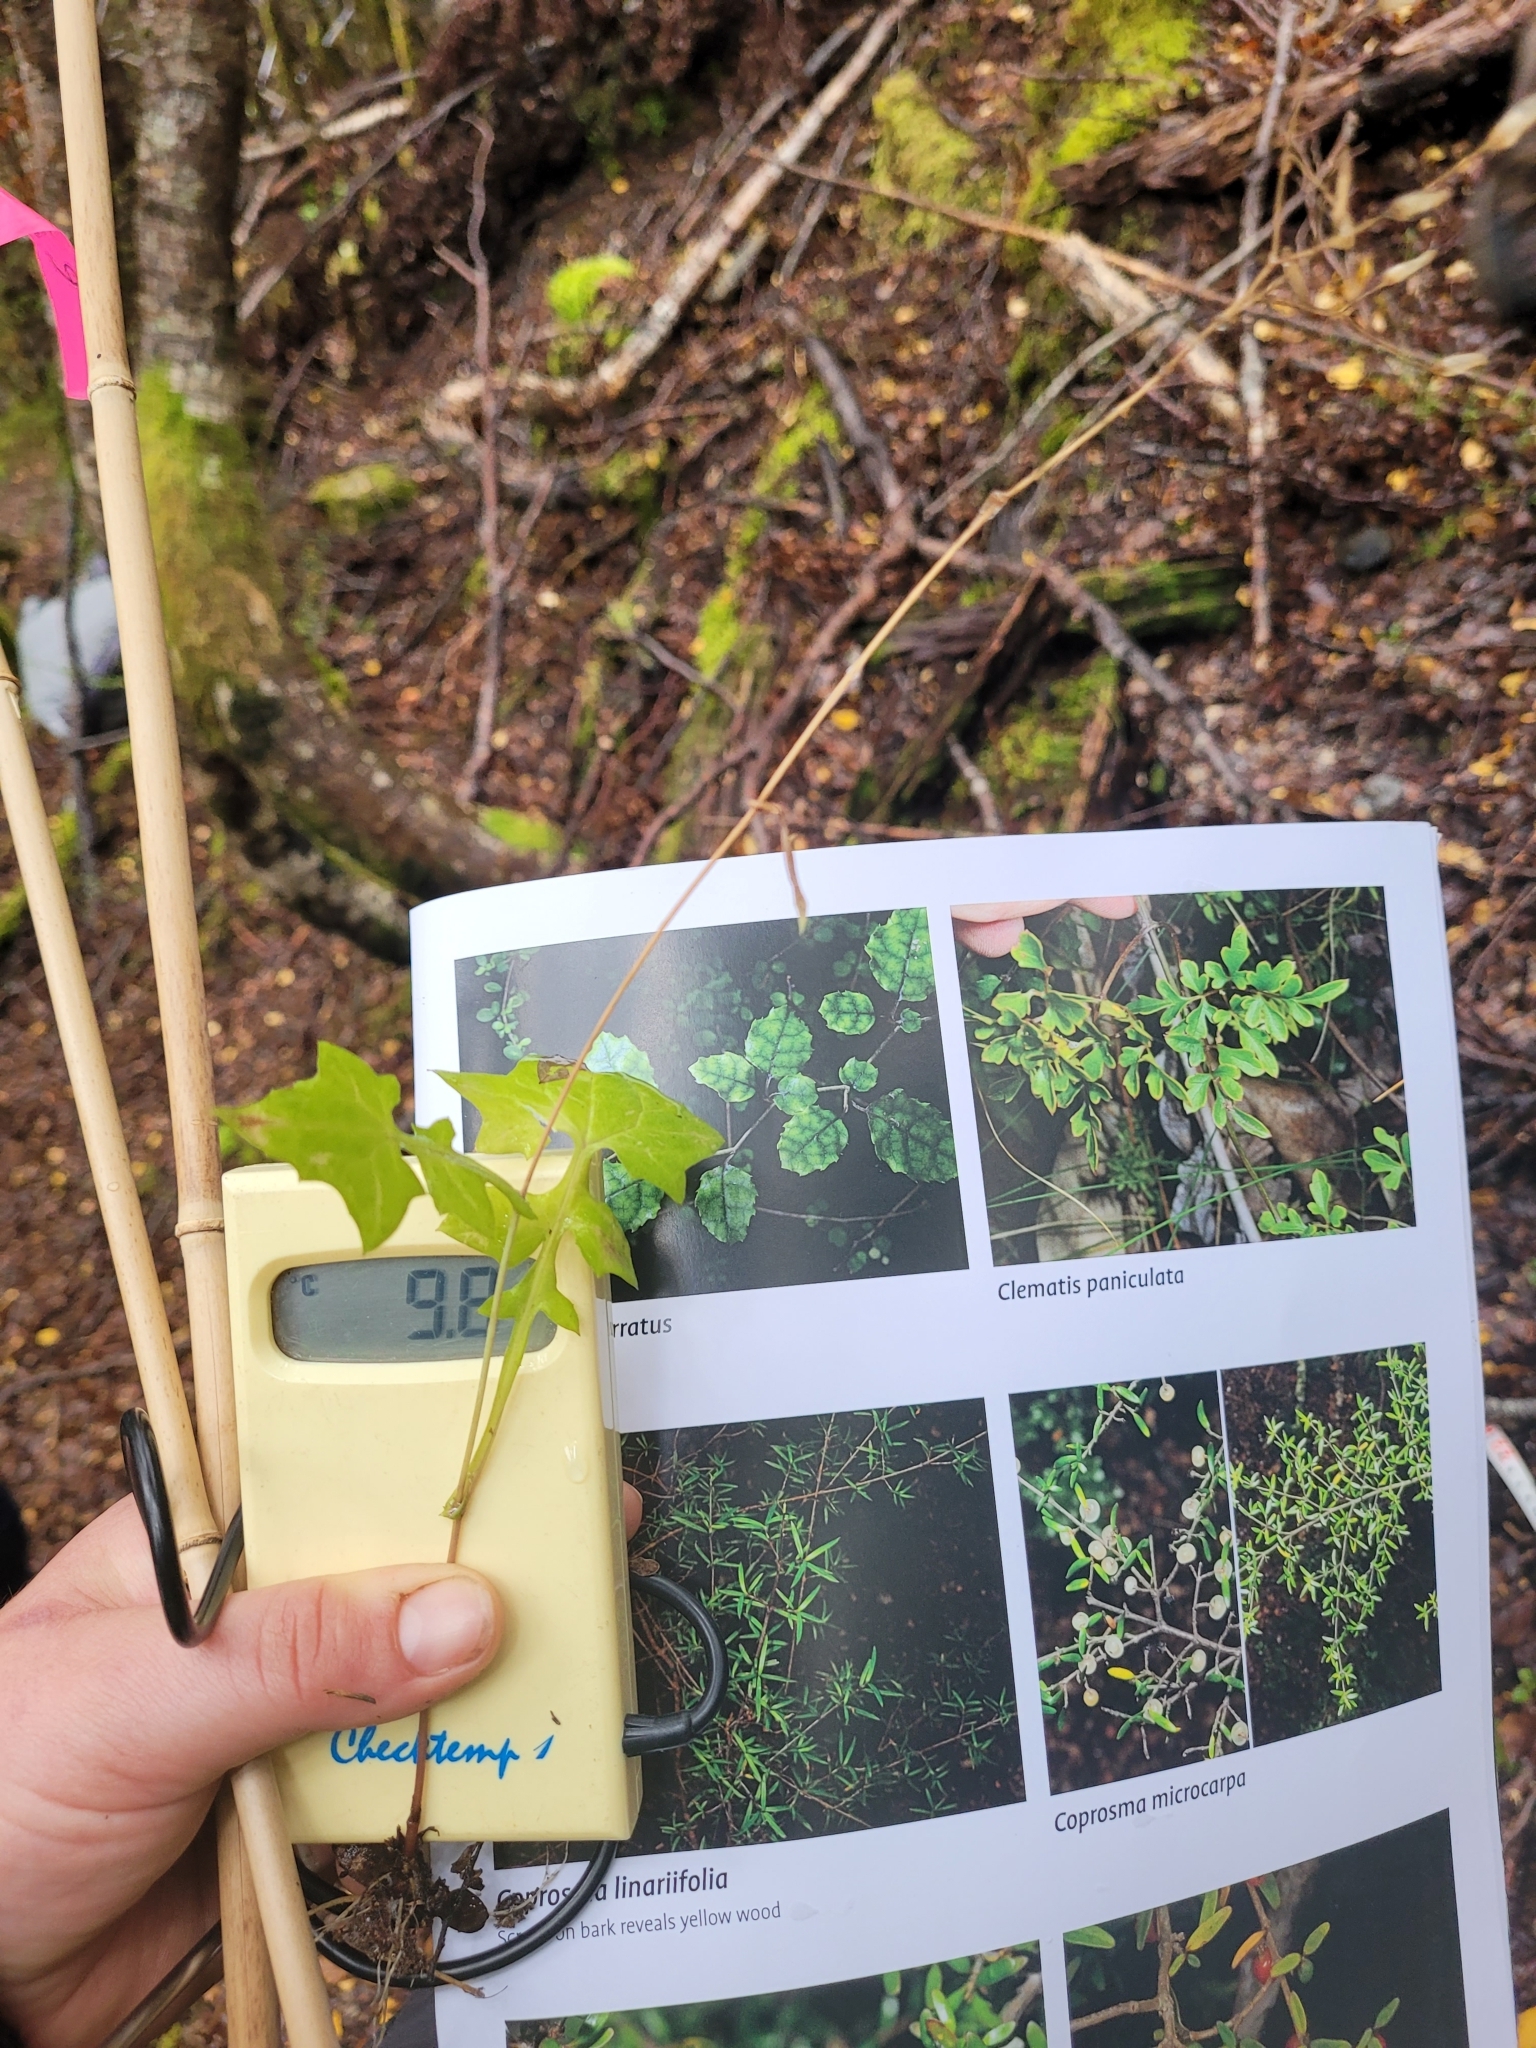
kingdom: Plantae
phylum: Tracheophyta
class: Magnoliopsida
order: Asterales
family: Asteraceae
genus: Mycelis
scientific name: Mycelis muralis
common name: Wall lettuce
